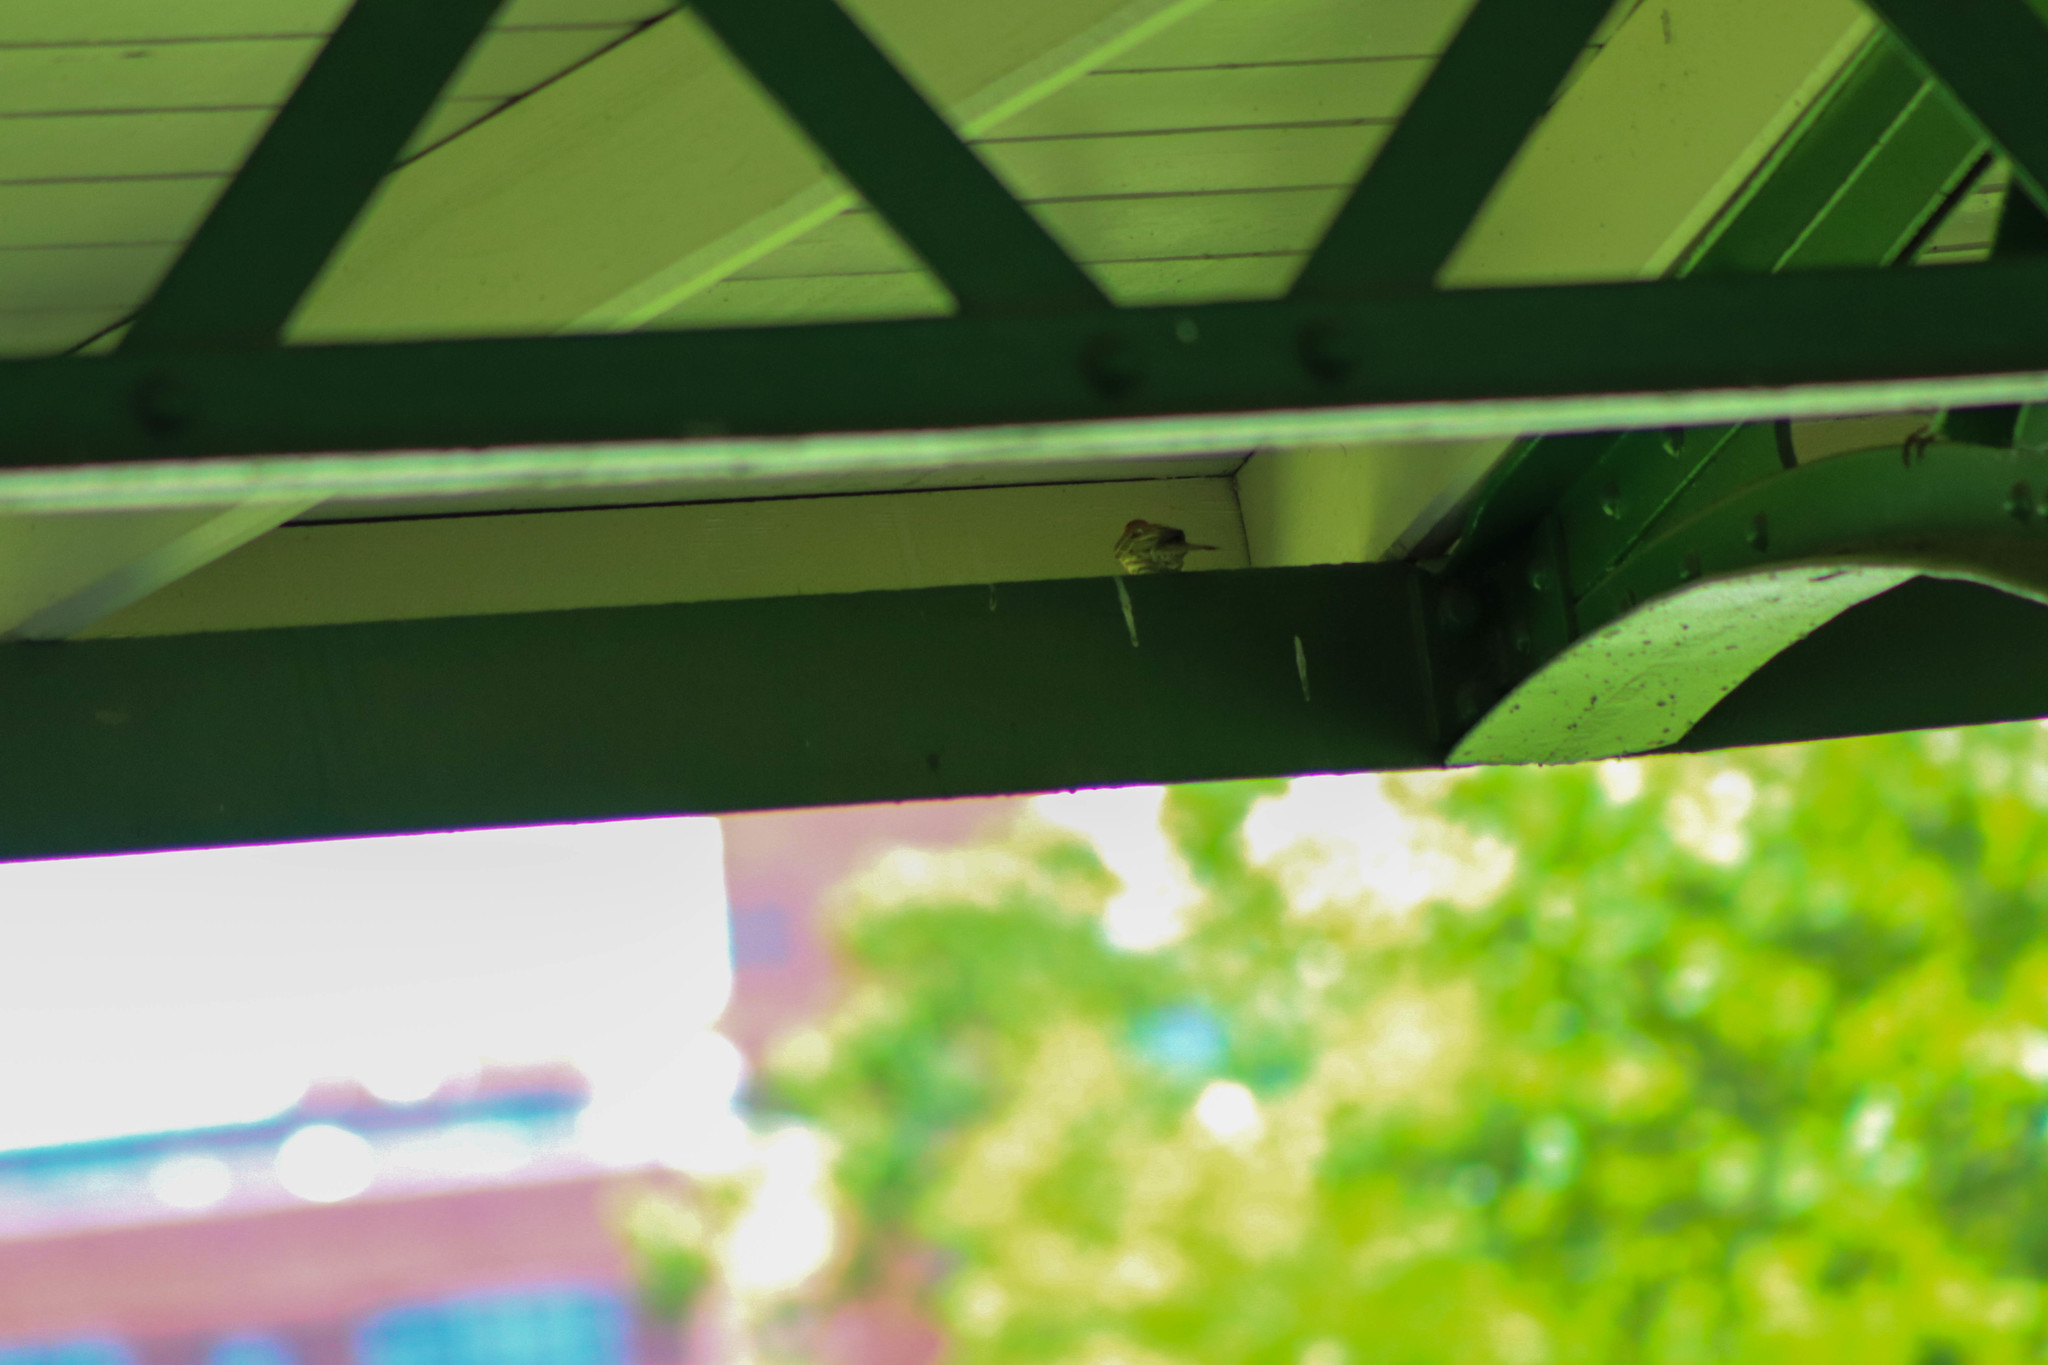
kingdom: Animalia
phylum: Chordata
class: Aves
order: Passeriformes
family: Fringillidae
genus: Haemorhous
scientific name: Haemorhous mexicanus
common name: House finch
